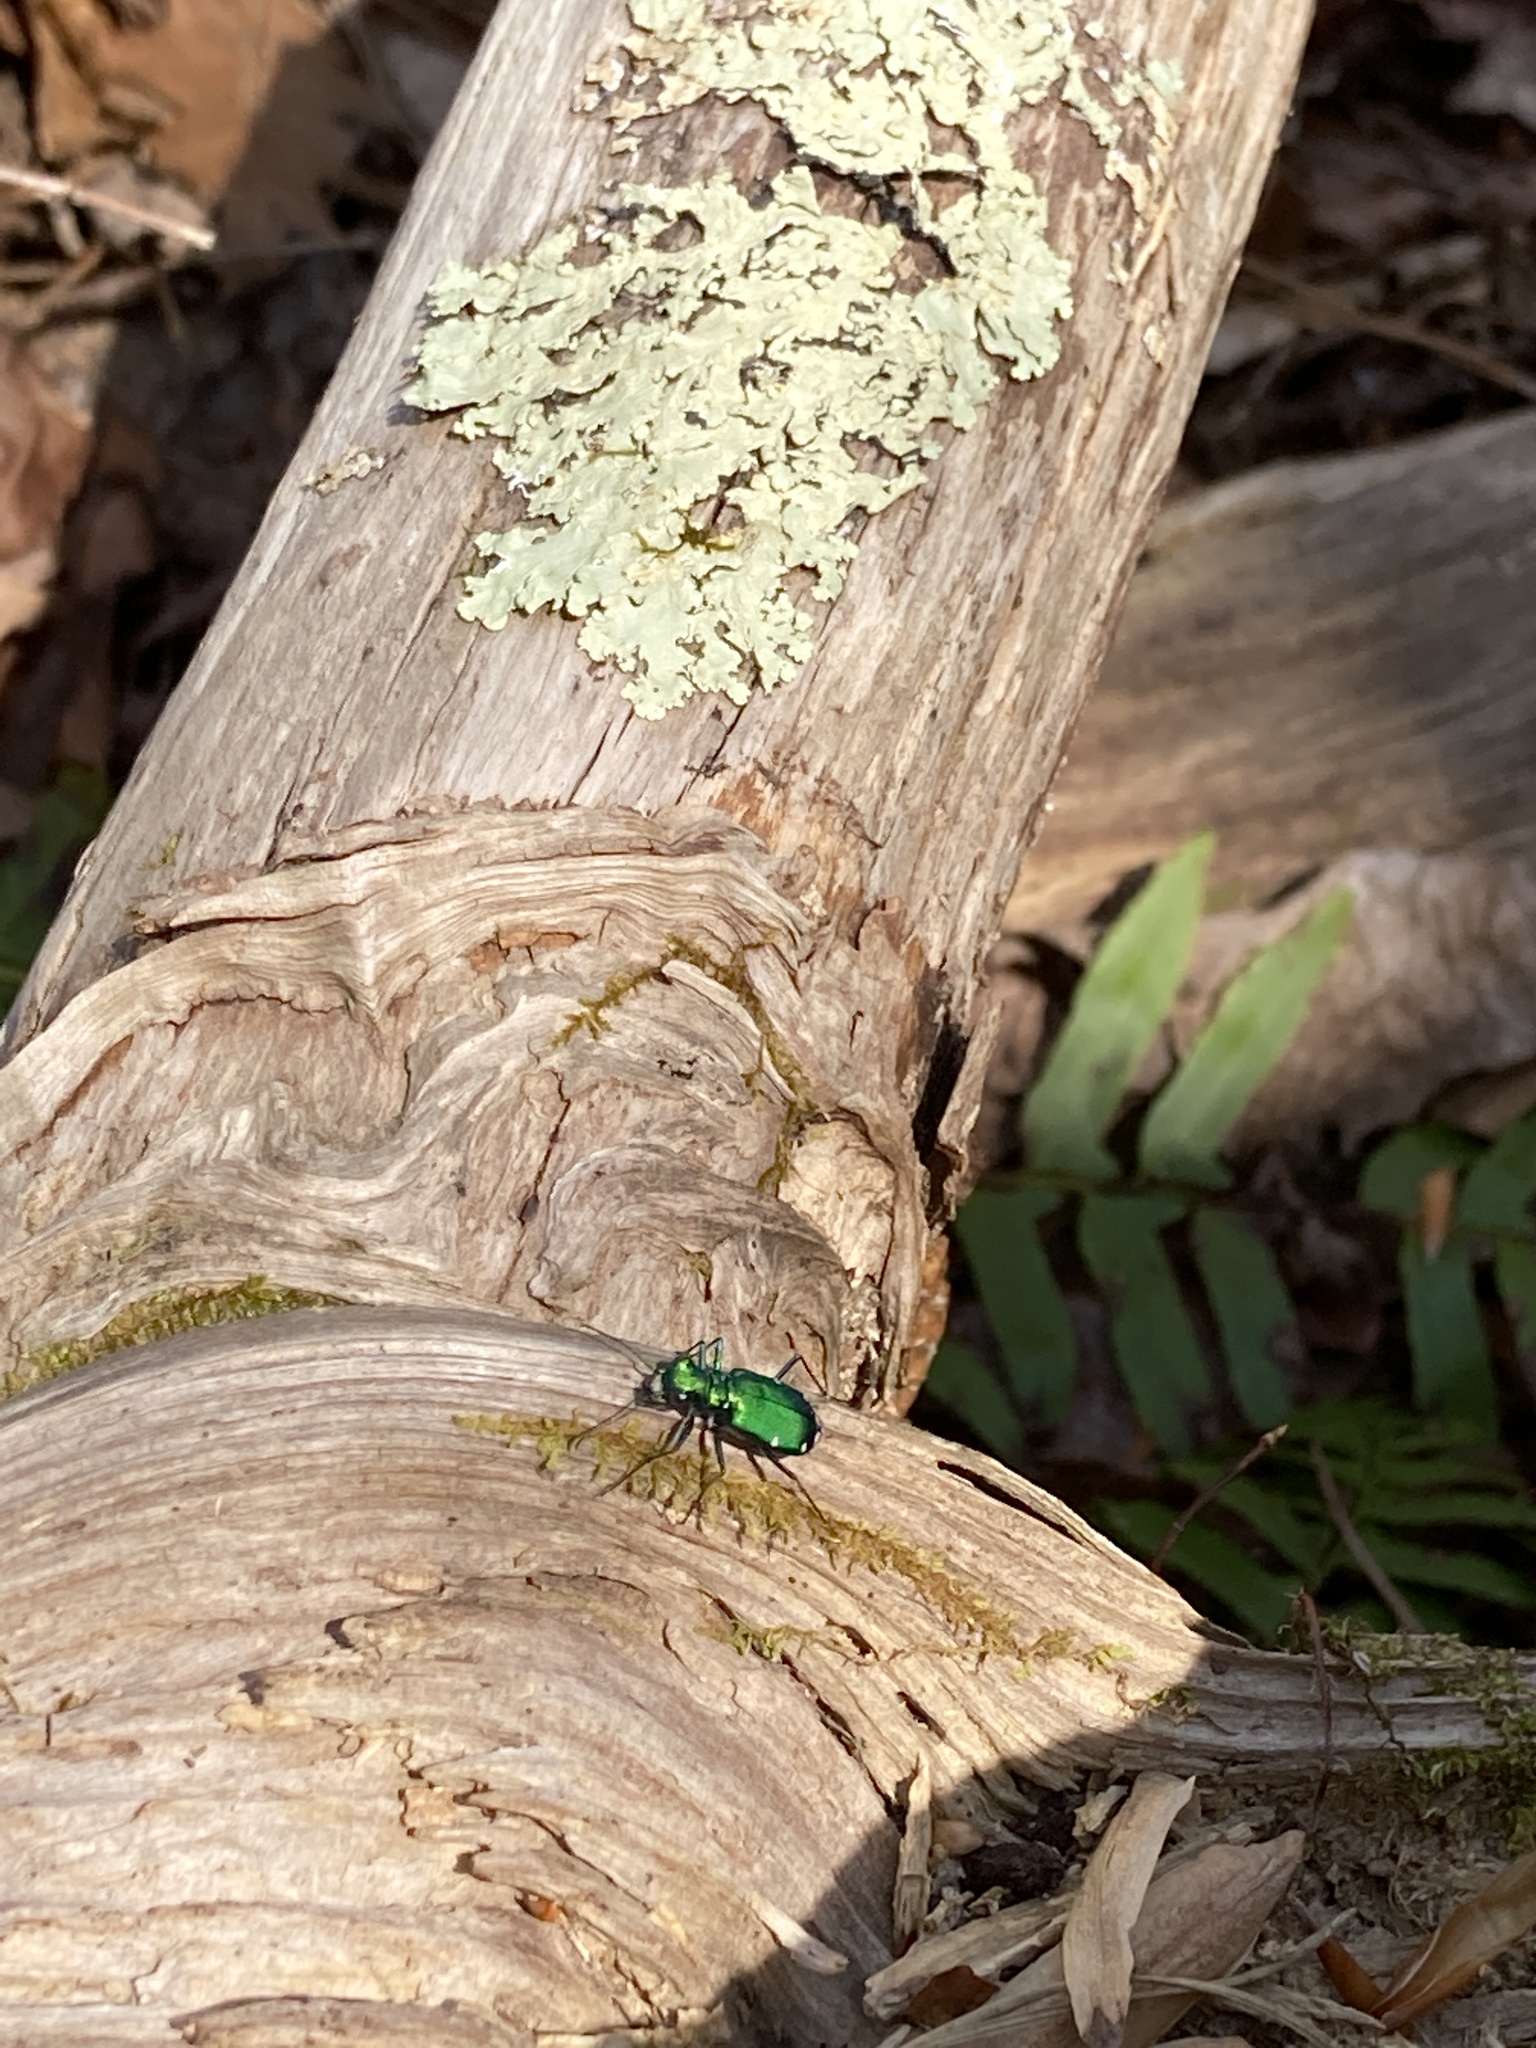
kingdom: Animalia
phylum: Arthropoda
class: Insecta
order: Coleoptera
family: Carabidae
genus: Cicindela
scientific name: Cicindela sexguttata
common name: Six-spotted tiger beetle
